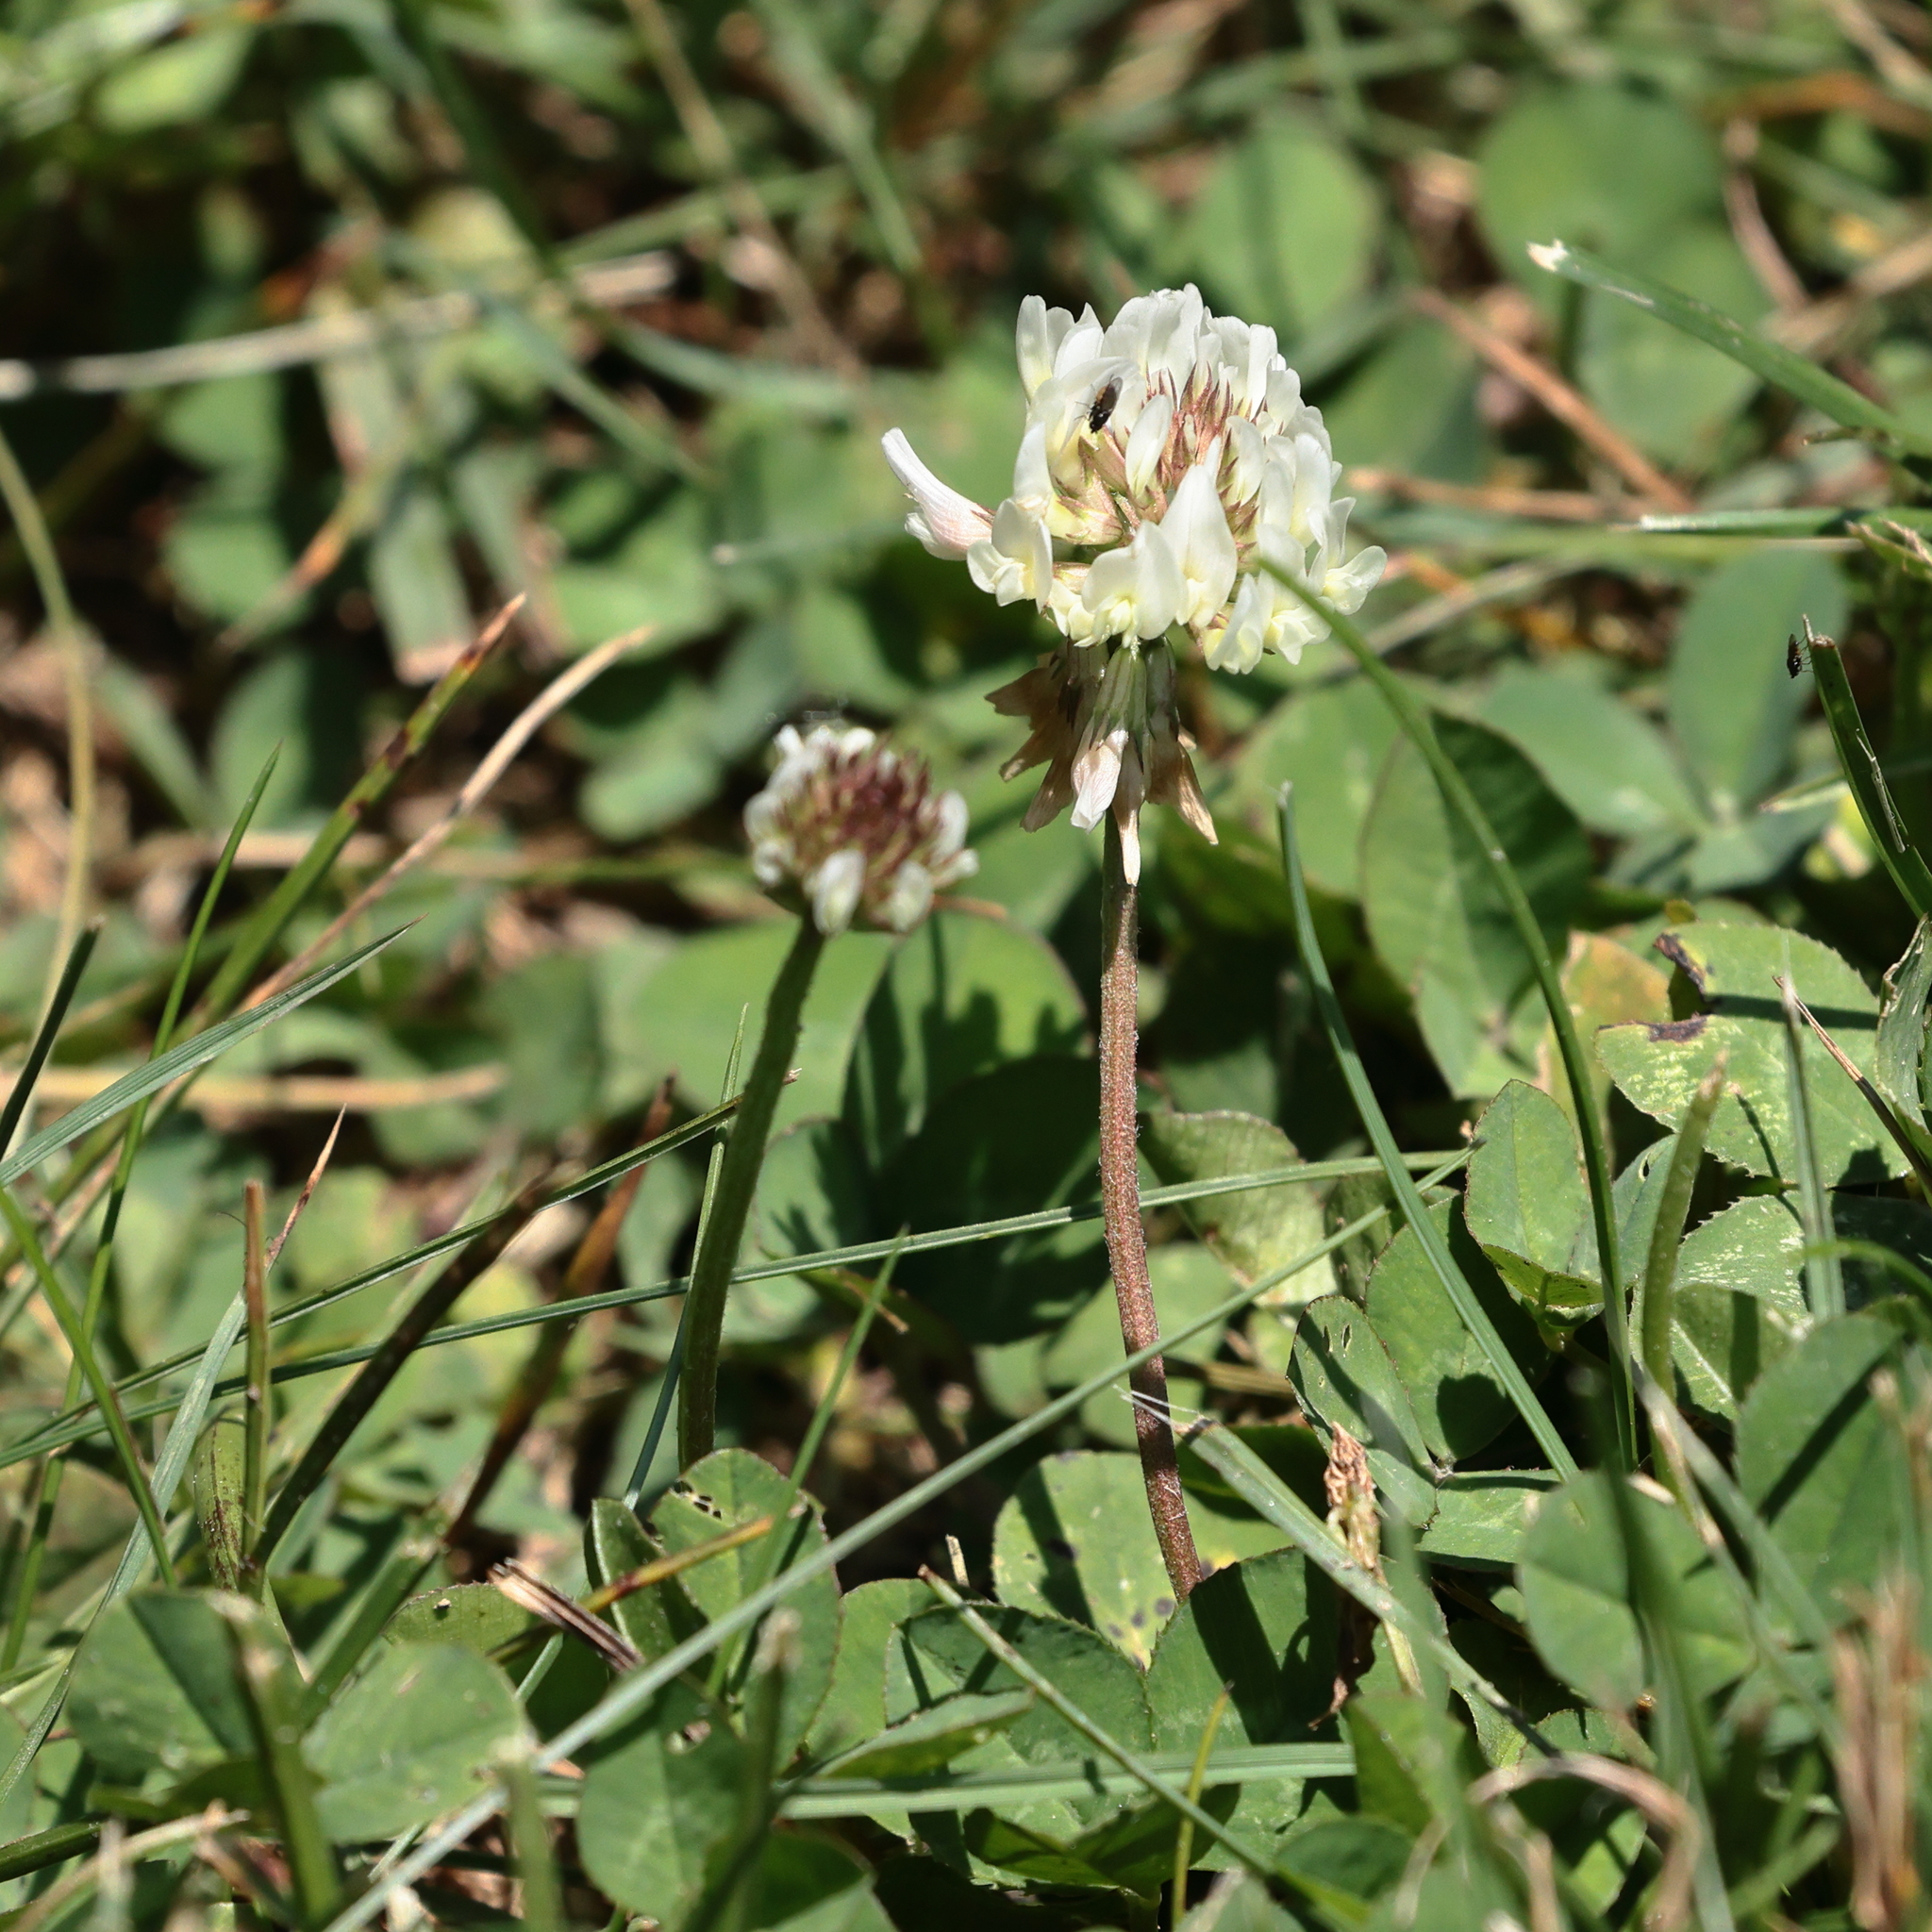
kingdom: Plantae
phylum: Tracheophyta
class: Magnoliopsida
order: Fabales
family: Fabaceae
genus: Trifolium
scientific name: Trifolium repens
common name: White clover
